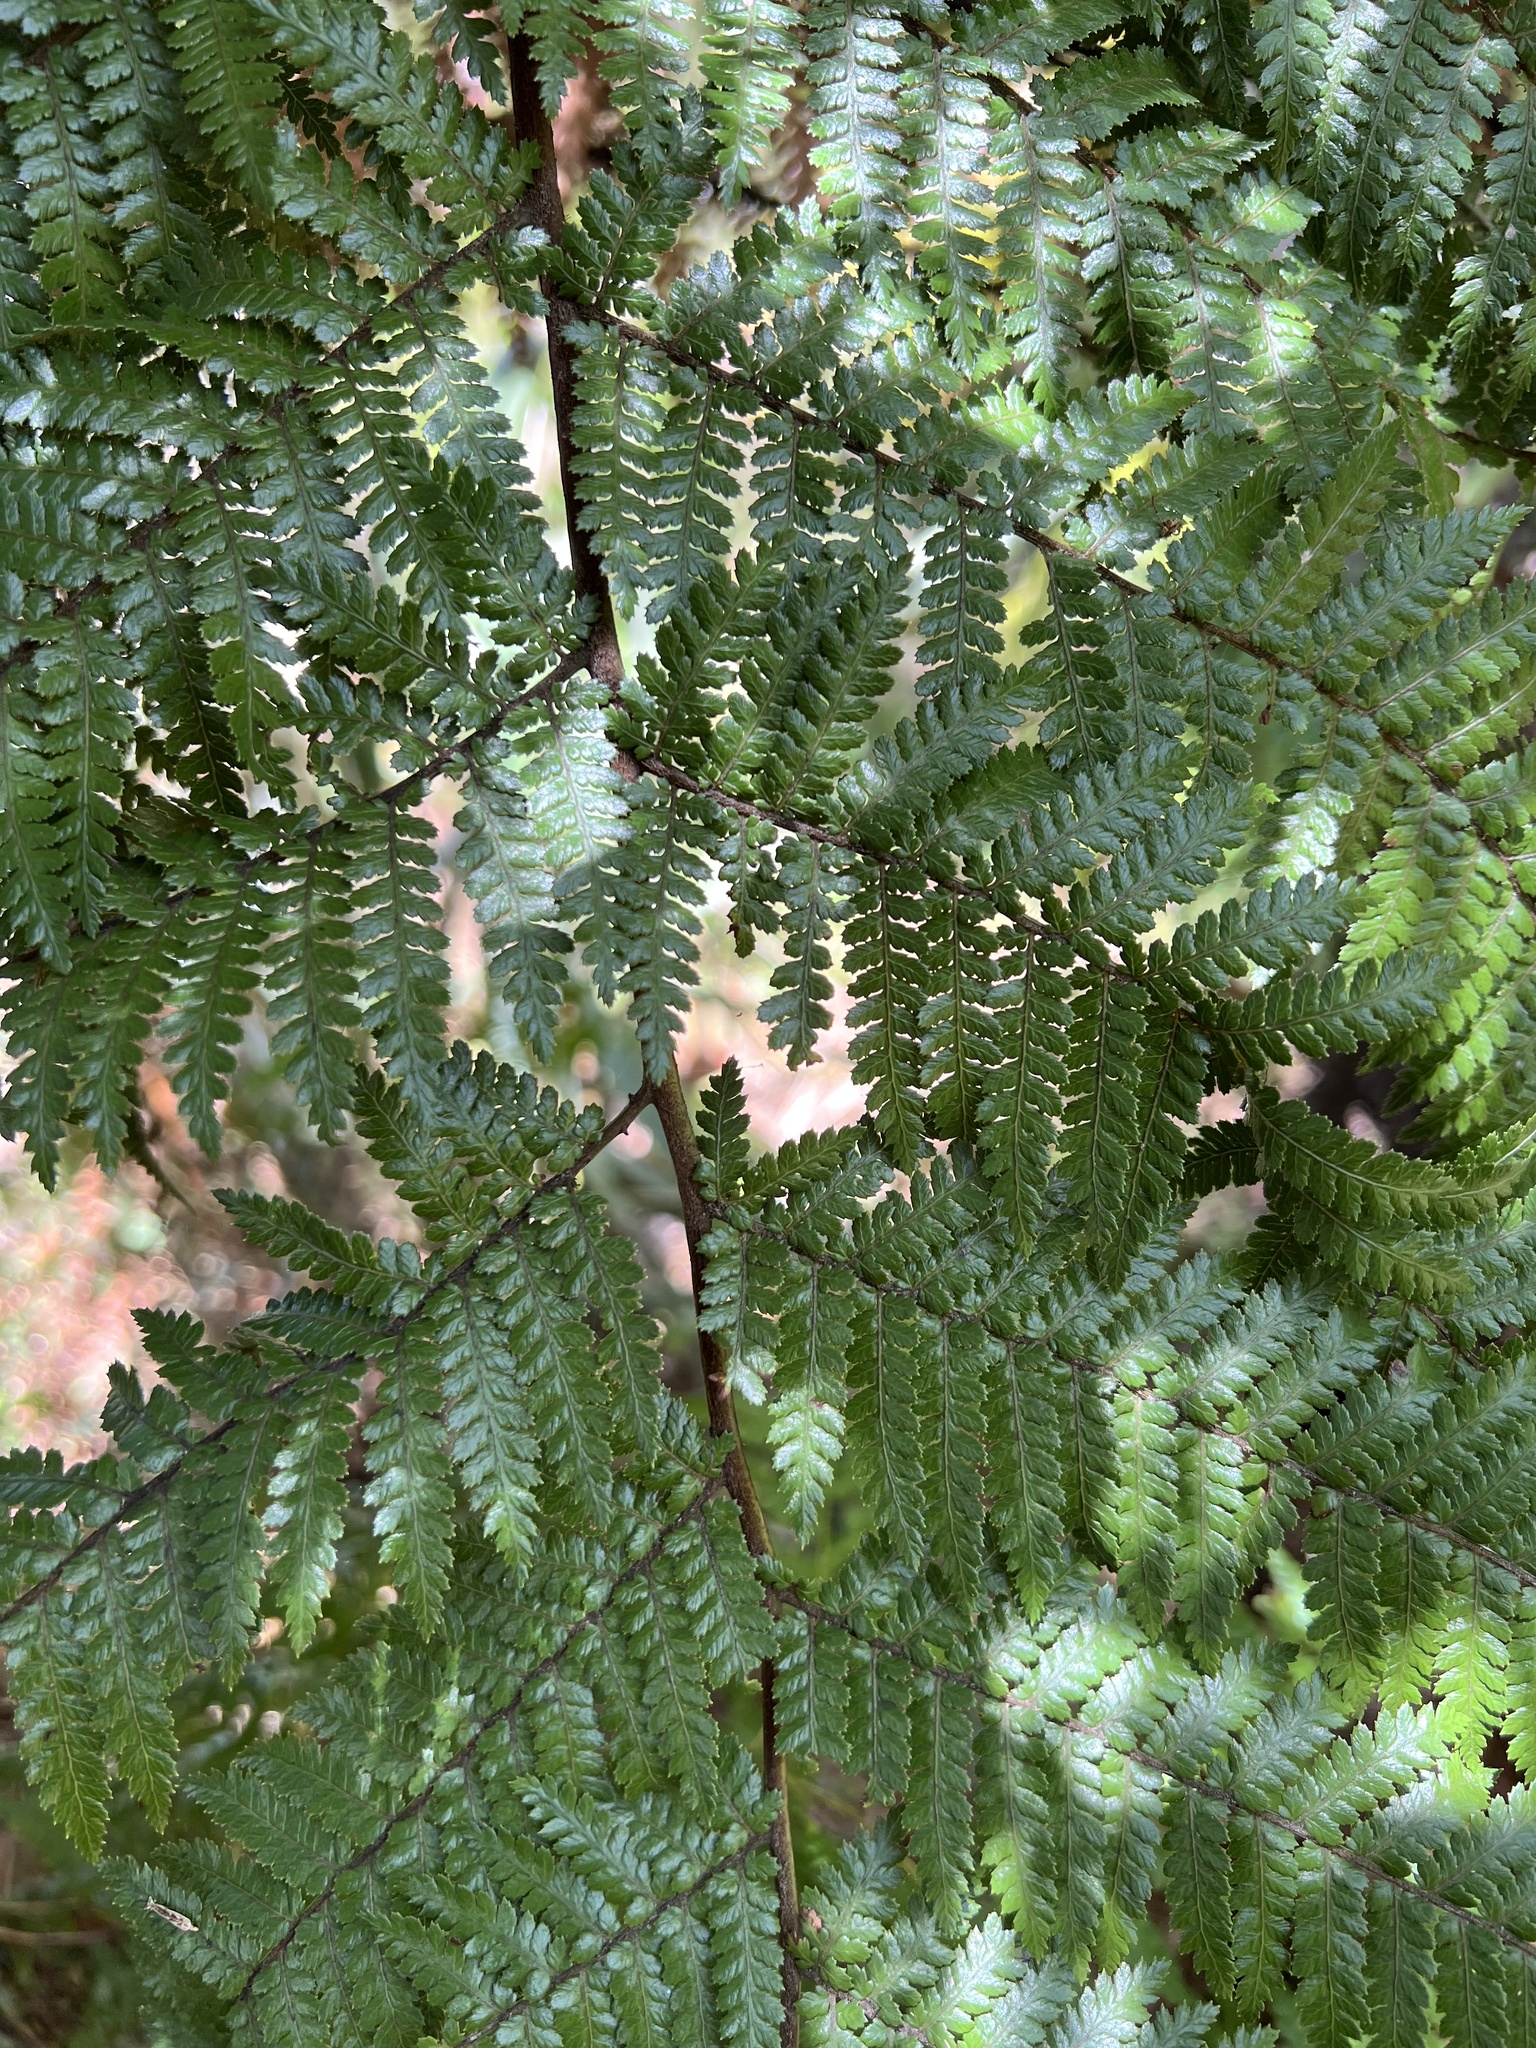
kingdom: Plantae
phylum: Tracheophyta
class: Polypodiopsida
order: Cyatheales
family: Dicksoniaceae
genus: Dicksonia
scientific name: Dicksonia squarrosa
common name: Hard treefern
